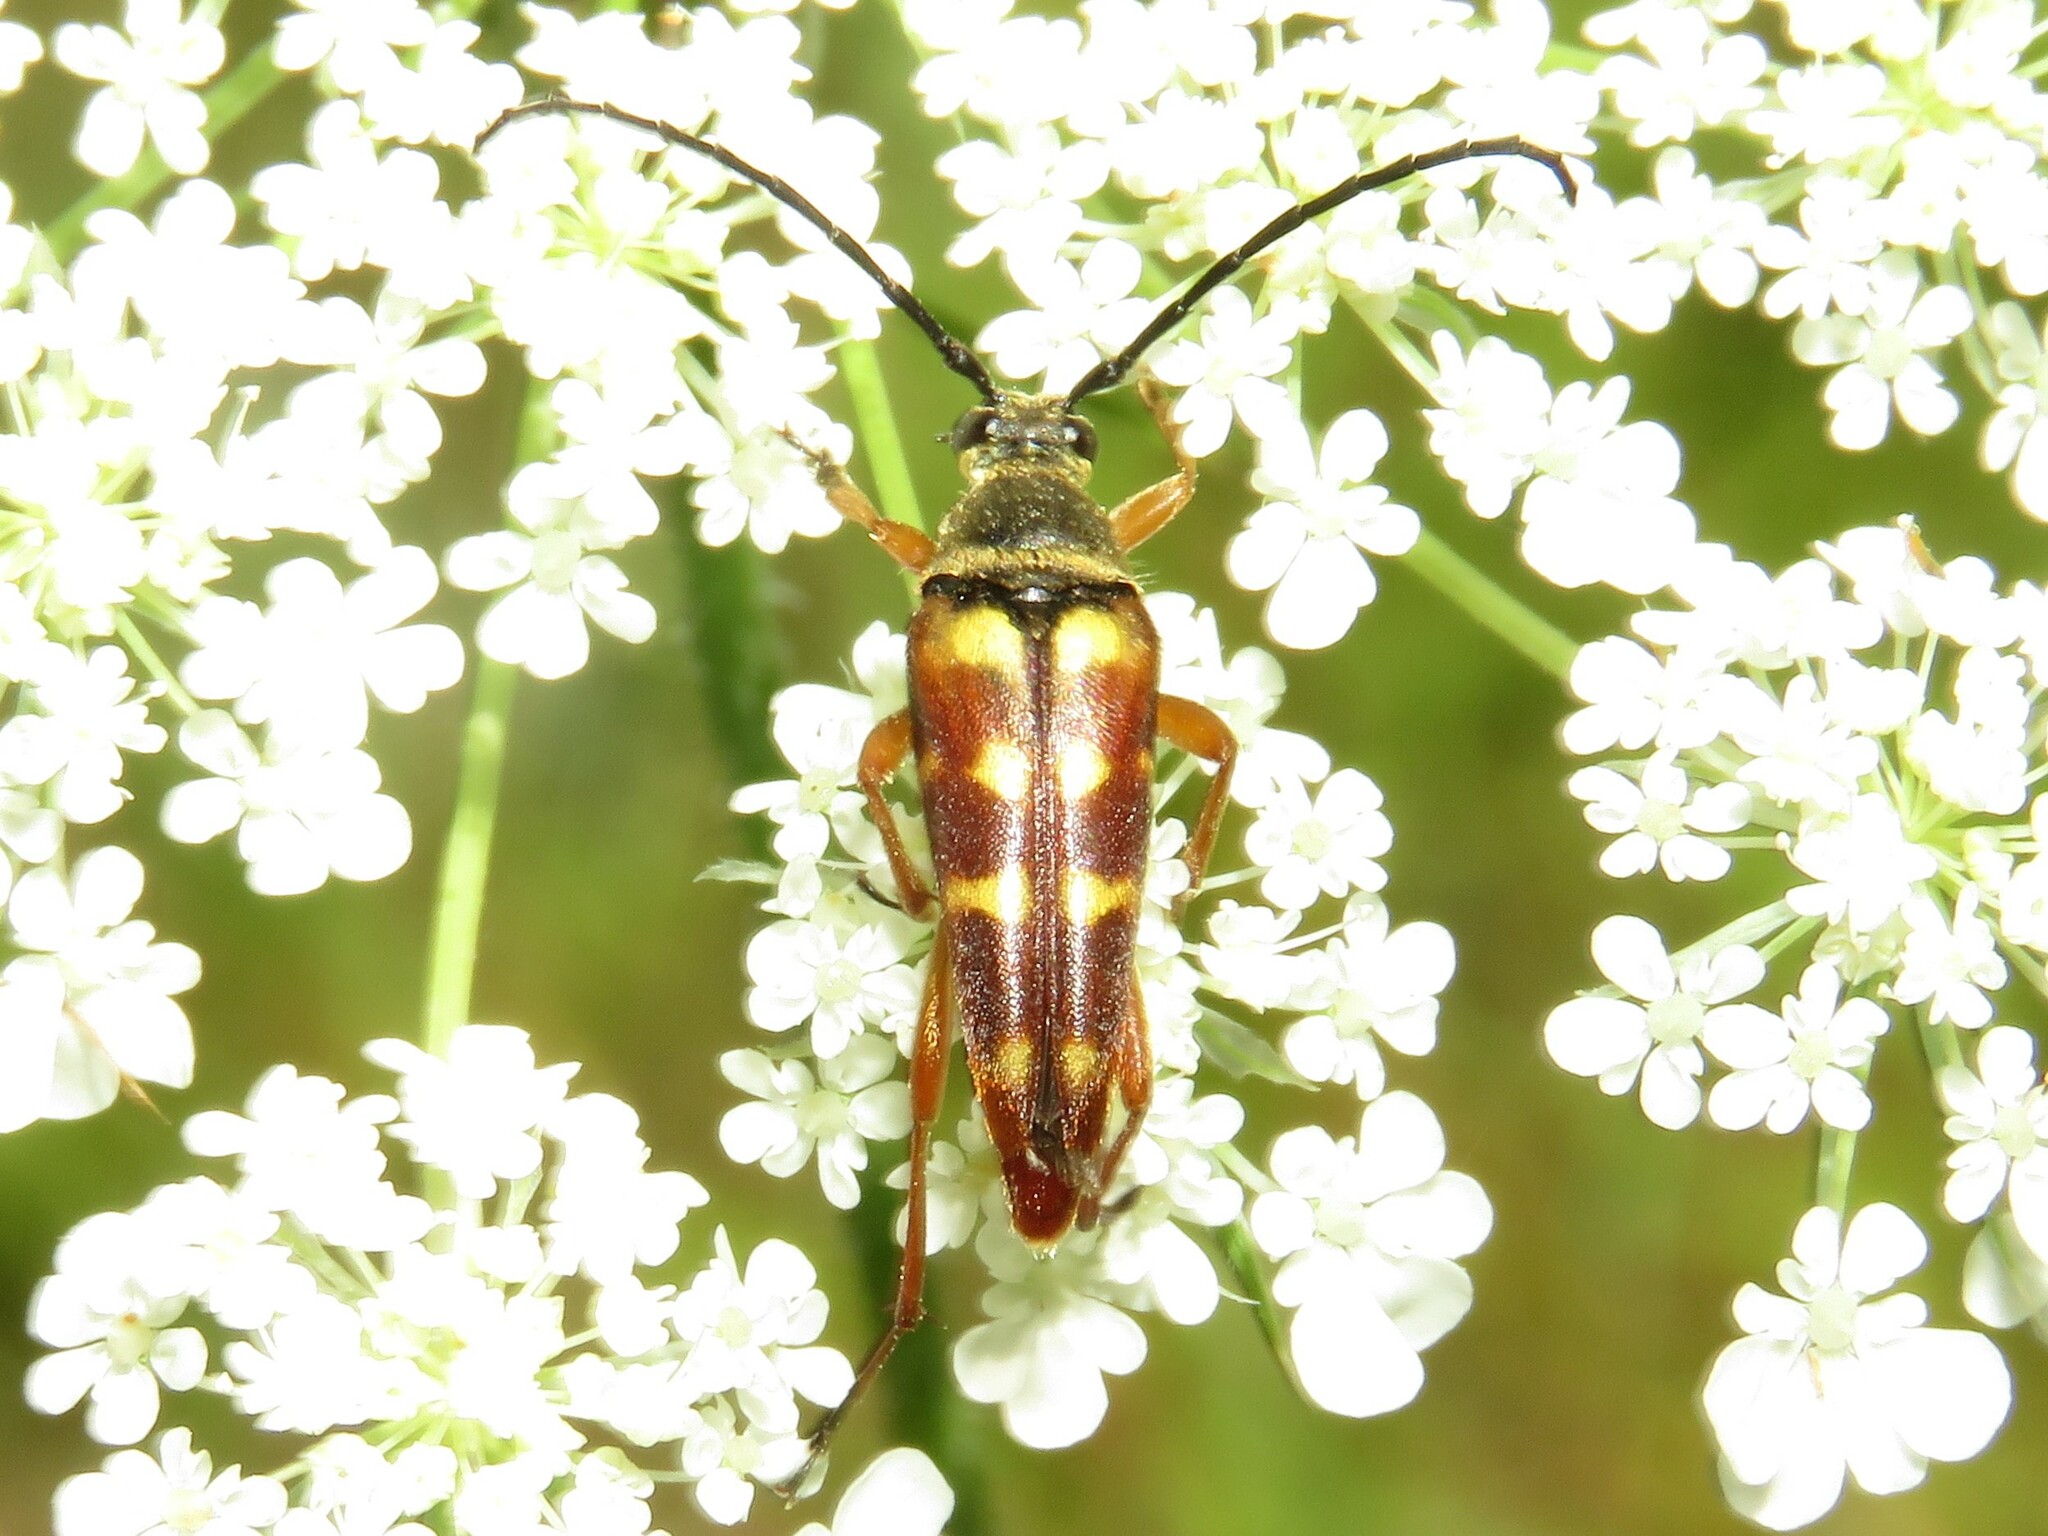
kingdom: Animalia
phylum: Arthropoda
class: Insecta
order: Coleoptera
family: Cerambycidae
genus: Typocerus
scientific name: Typocerus velutinus
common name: Banded longhorn beetle
